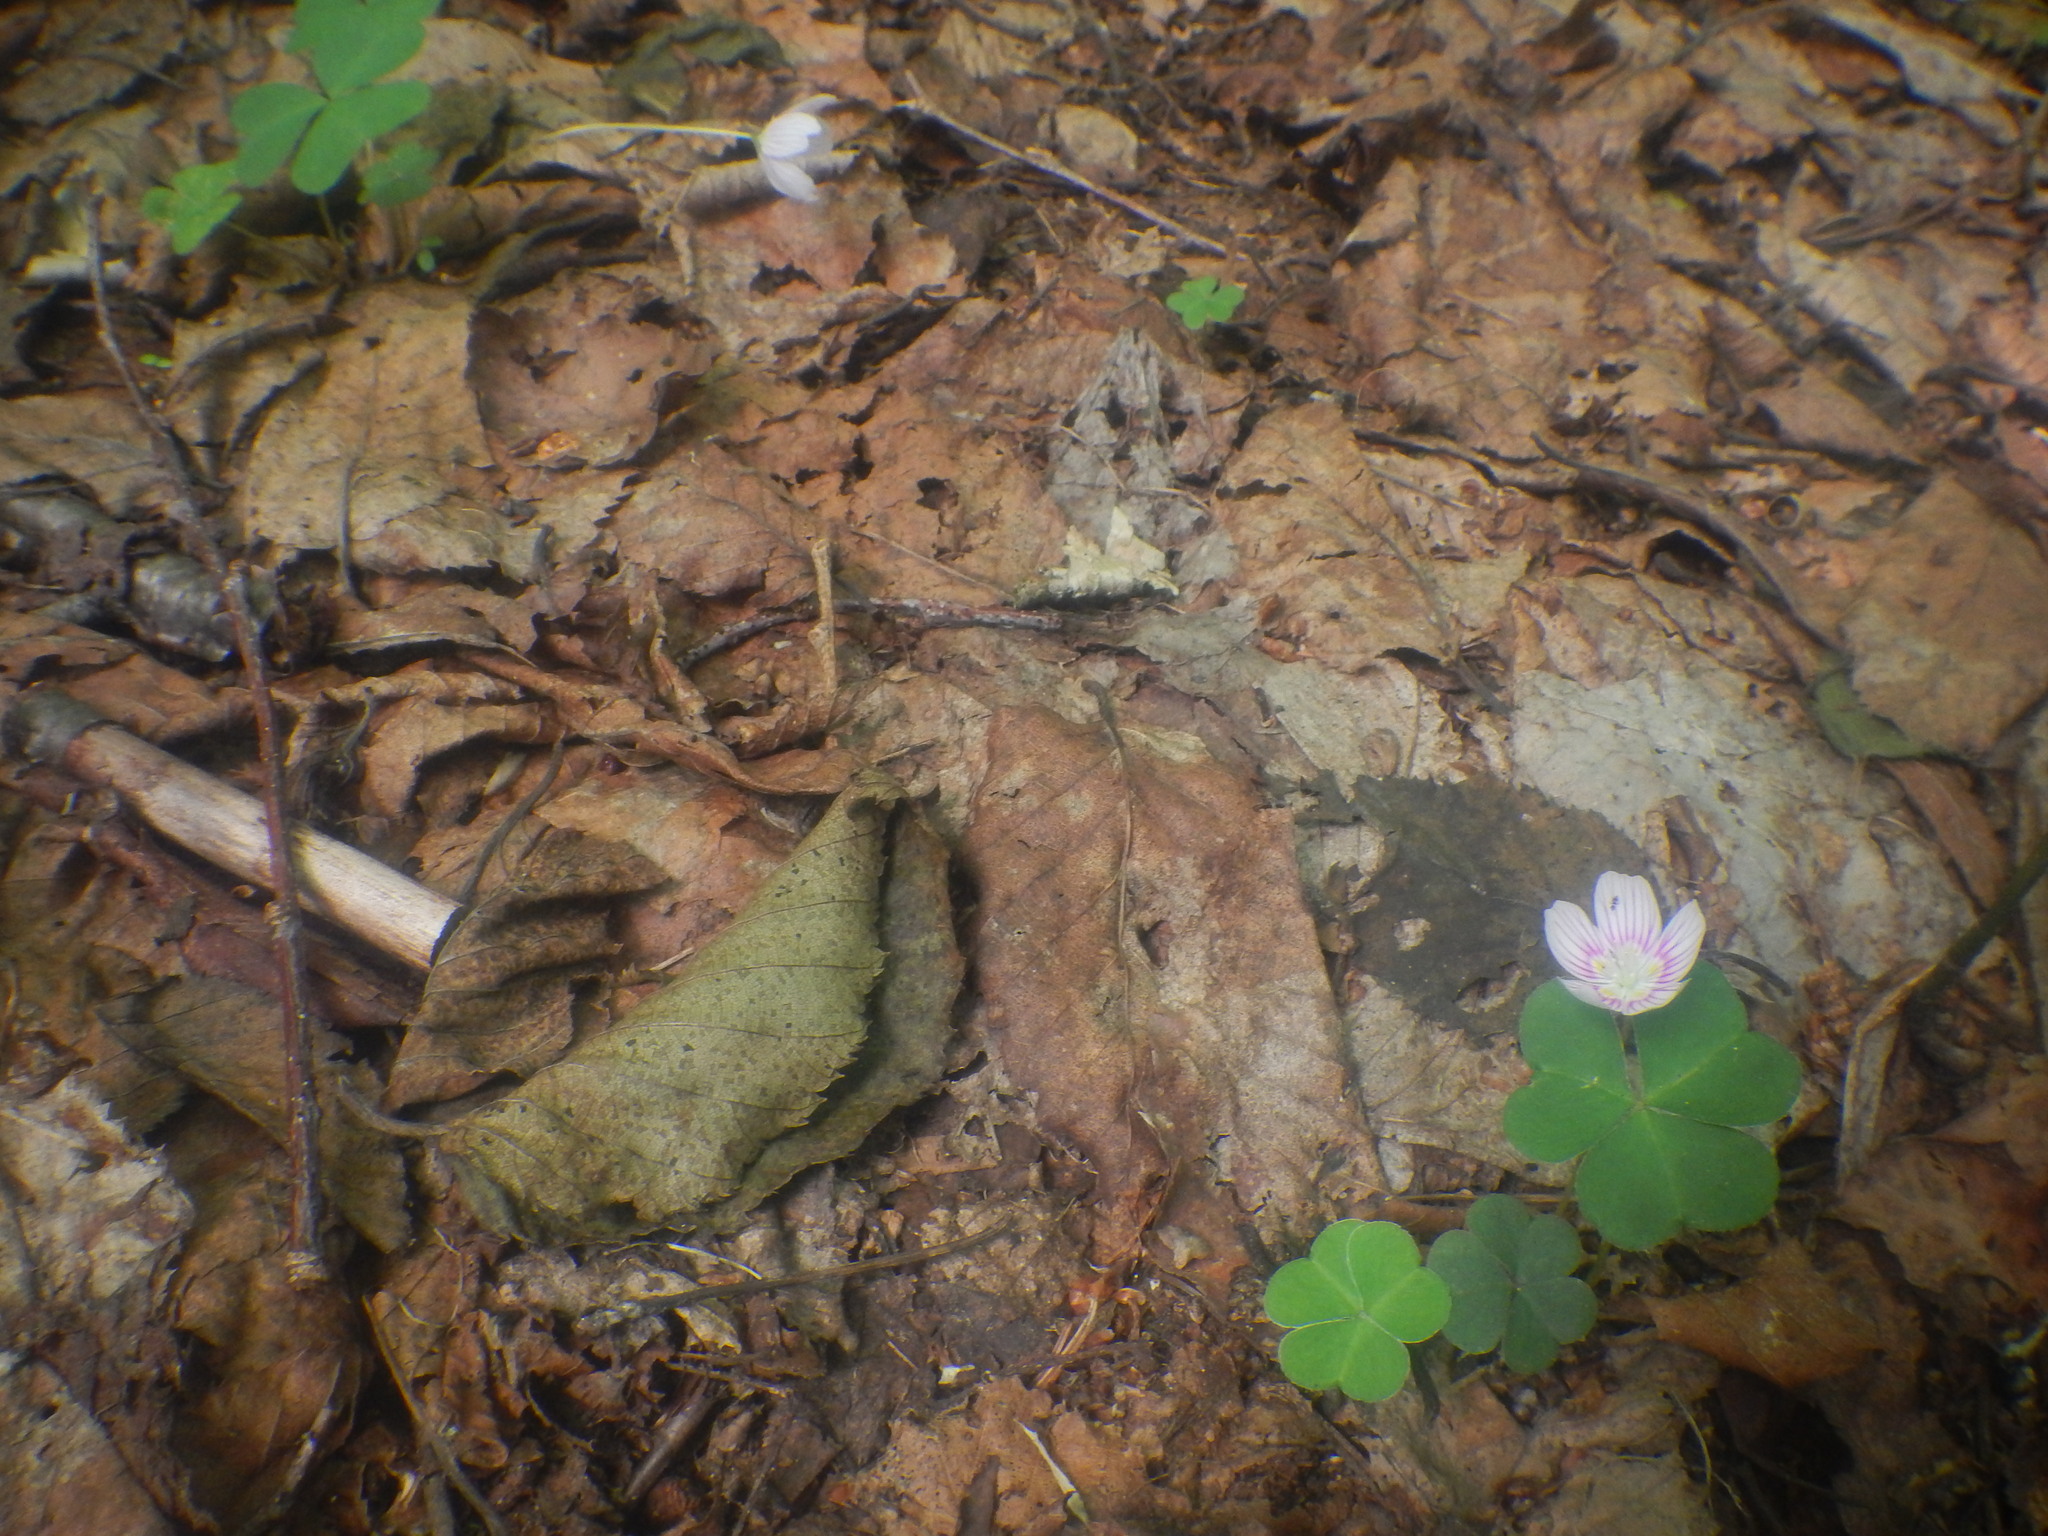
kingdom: Plantae
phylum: Tracheophyta
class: Magnoliopsida
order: Oxalidales
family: Oxalidaceae
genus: Oxalis
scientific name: Oxalis montana
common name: American wood-sorrel
